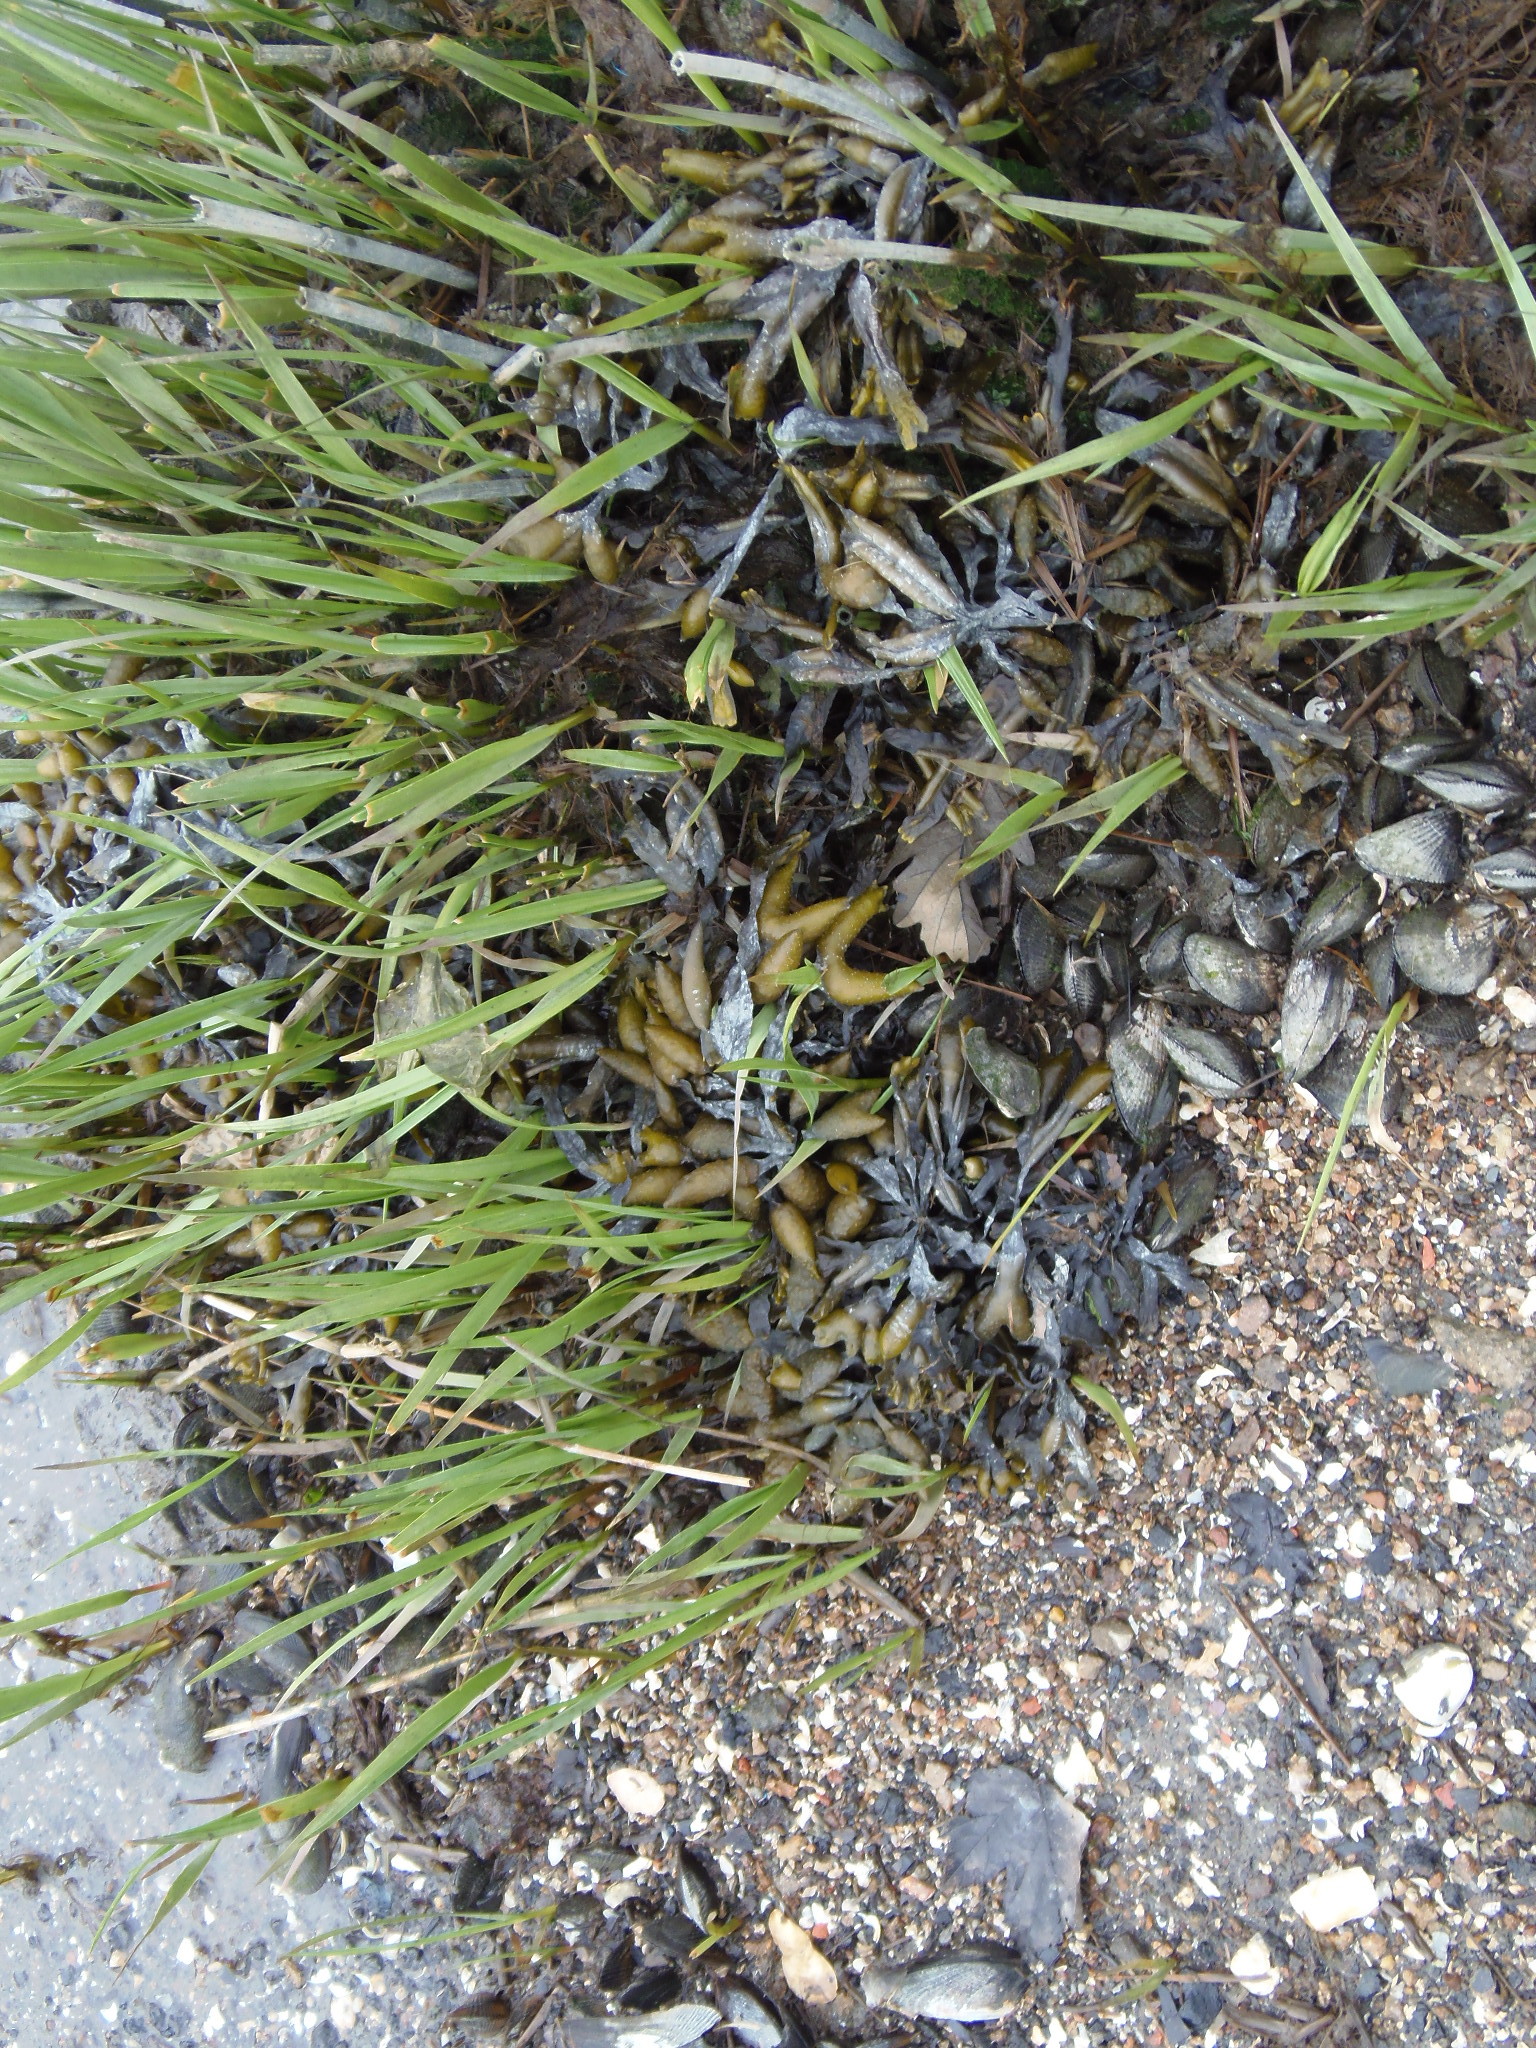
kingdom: Animalia
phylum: Mollusca
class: Bivalvia
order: Mytilida
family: Mytilidae
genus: Geukensia
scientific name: Geukensia demissa
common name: Ribbed mussel
